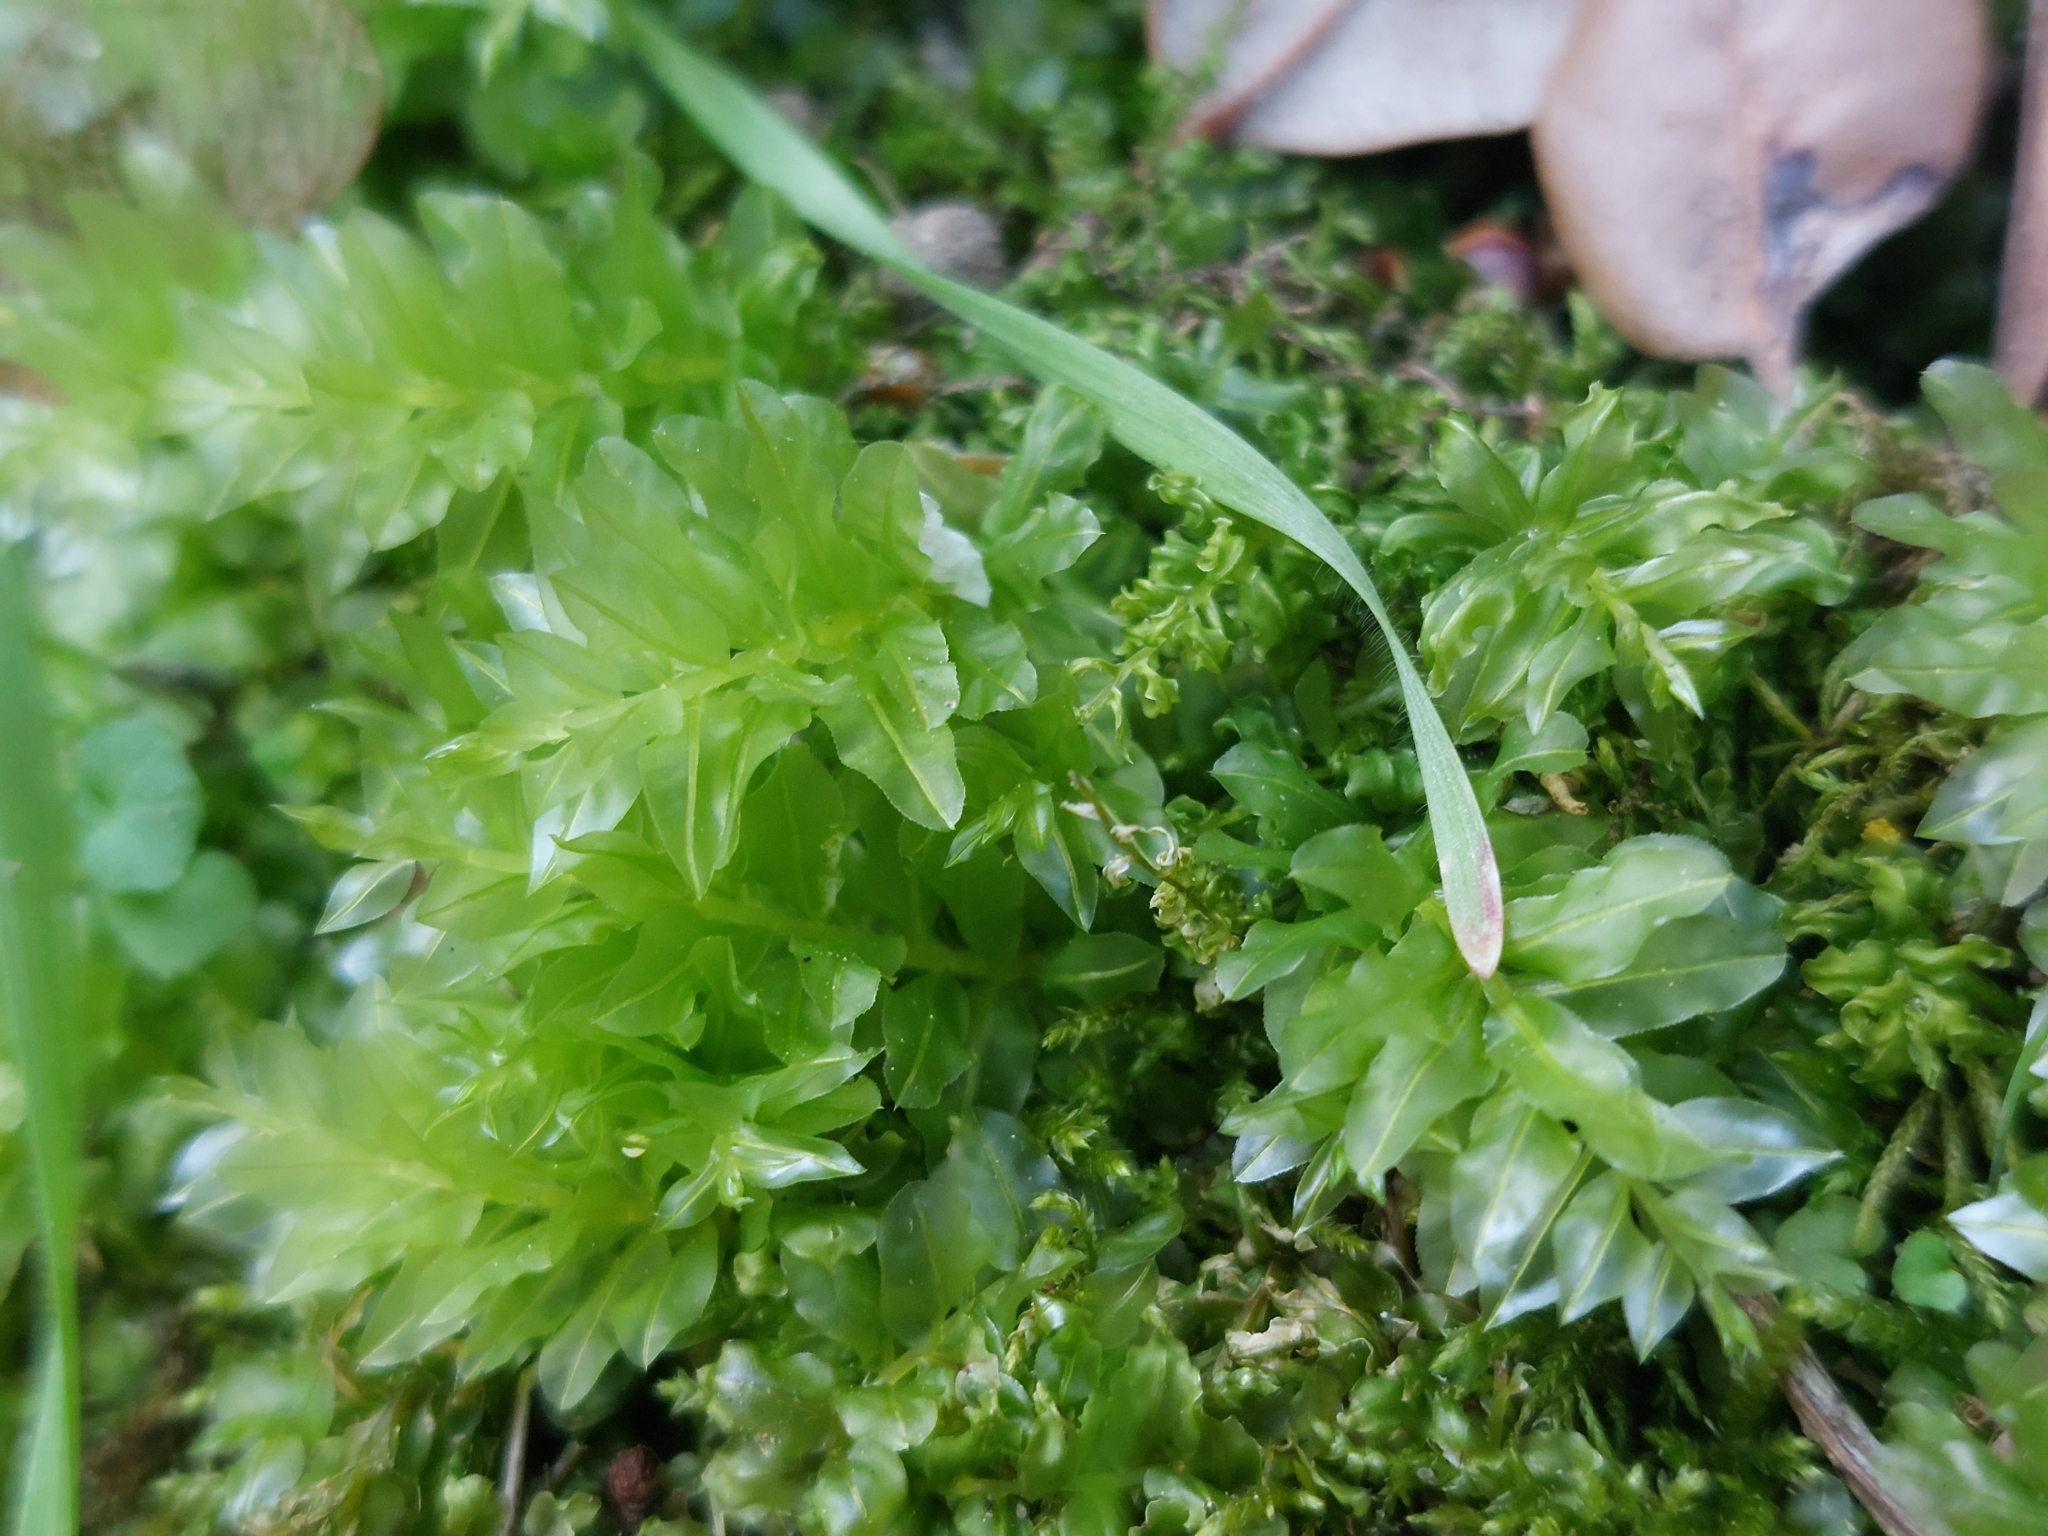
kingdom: Plantae
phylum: Bryophyta
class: Bryopsida
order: Bryales
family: Mniaceae
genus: Plagiomnium
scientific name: Plagiomnium undulatum
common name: Hart's-tongue thyme-moss
